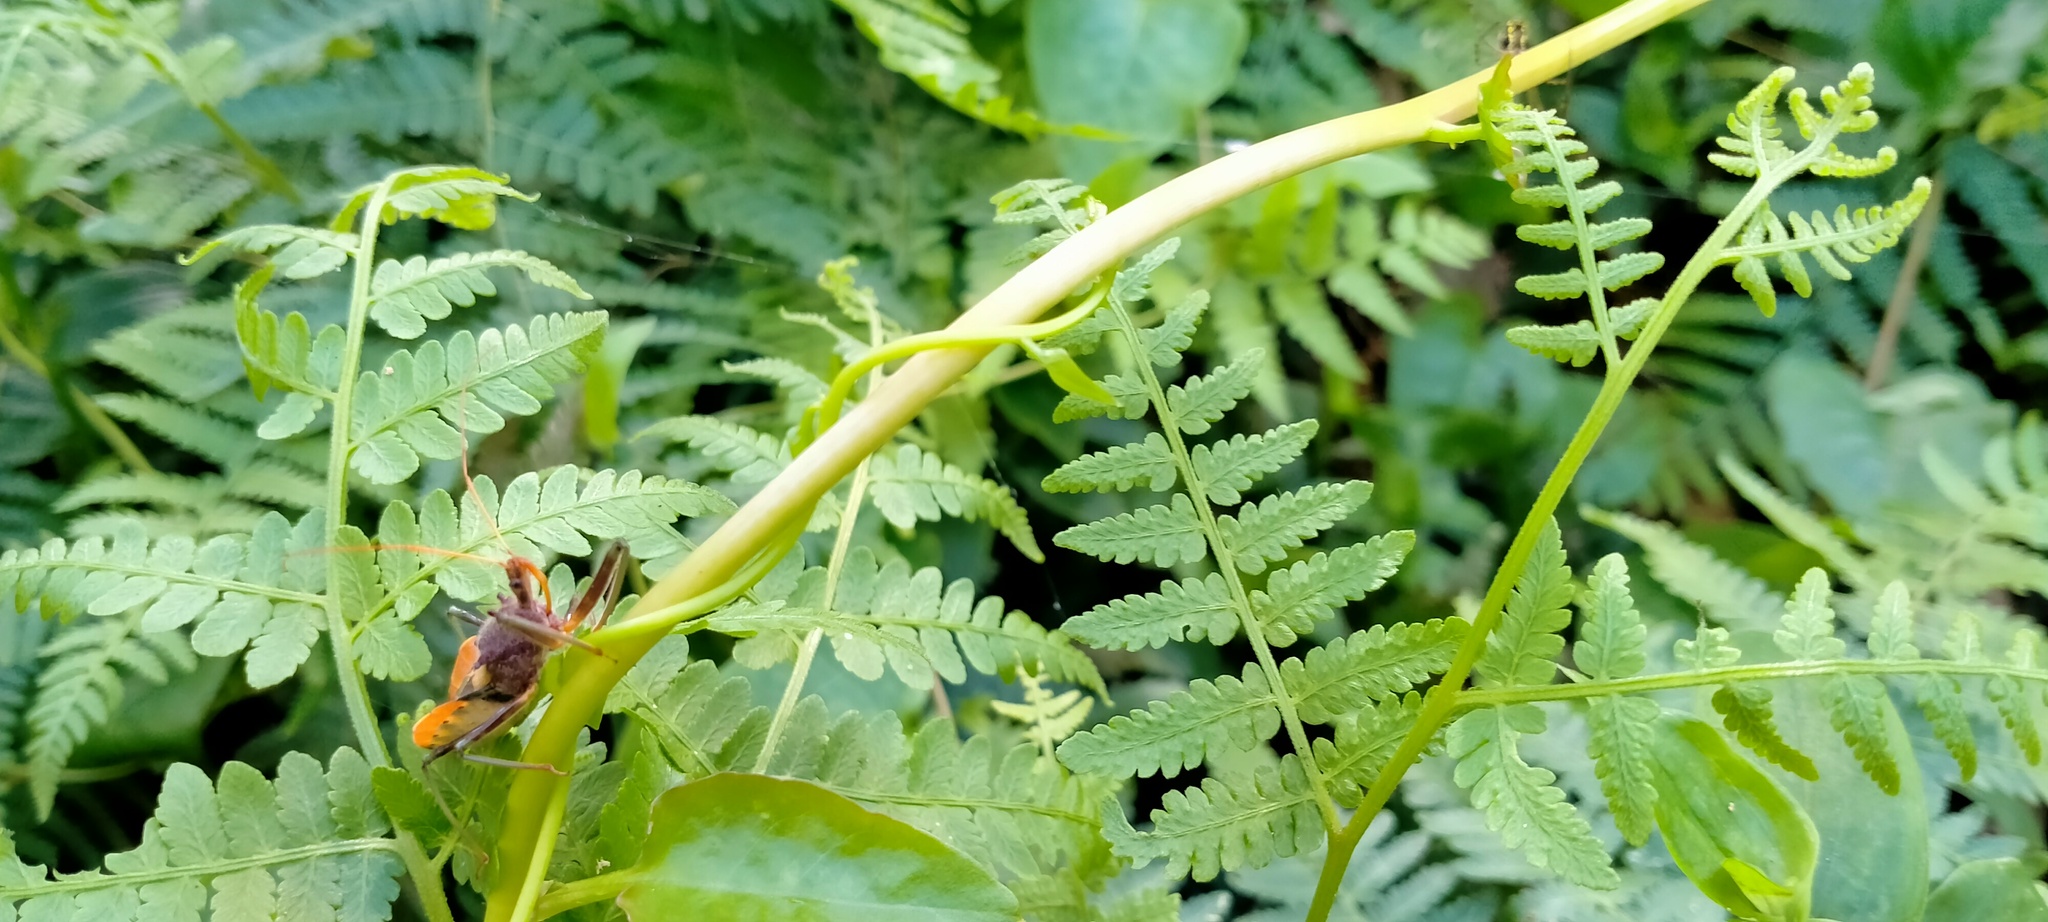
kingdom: Animalia
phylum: Arthropoda
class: Insecta
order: Hemiptera
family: Reduviidae
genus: Pristhesancus
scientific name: Pristhesancus plagipennis
